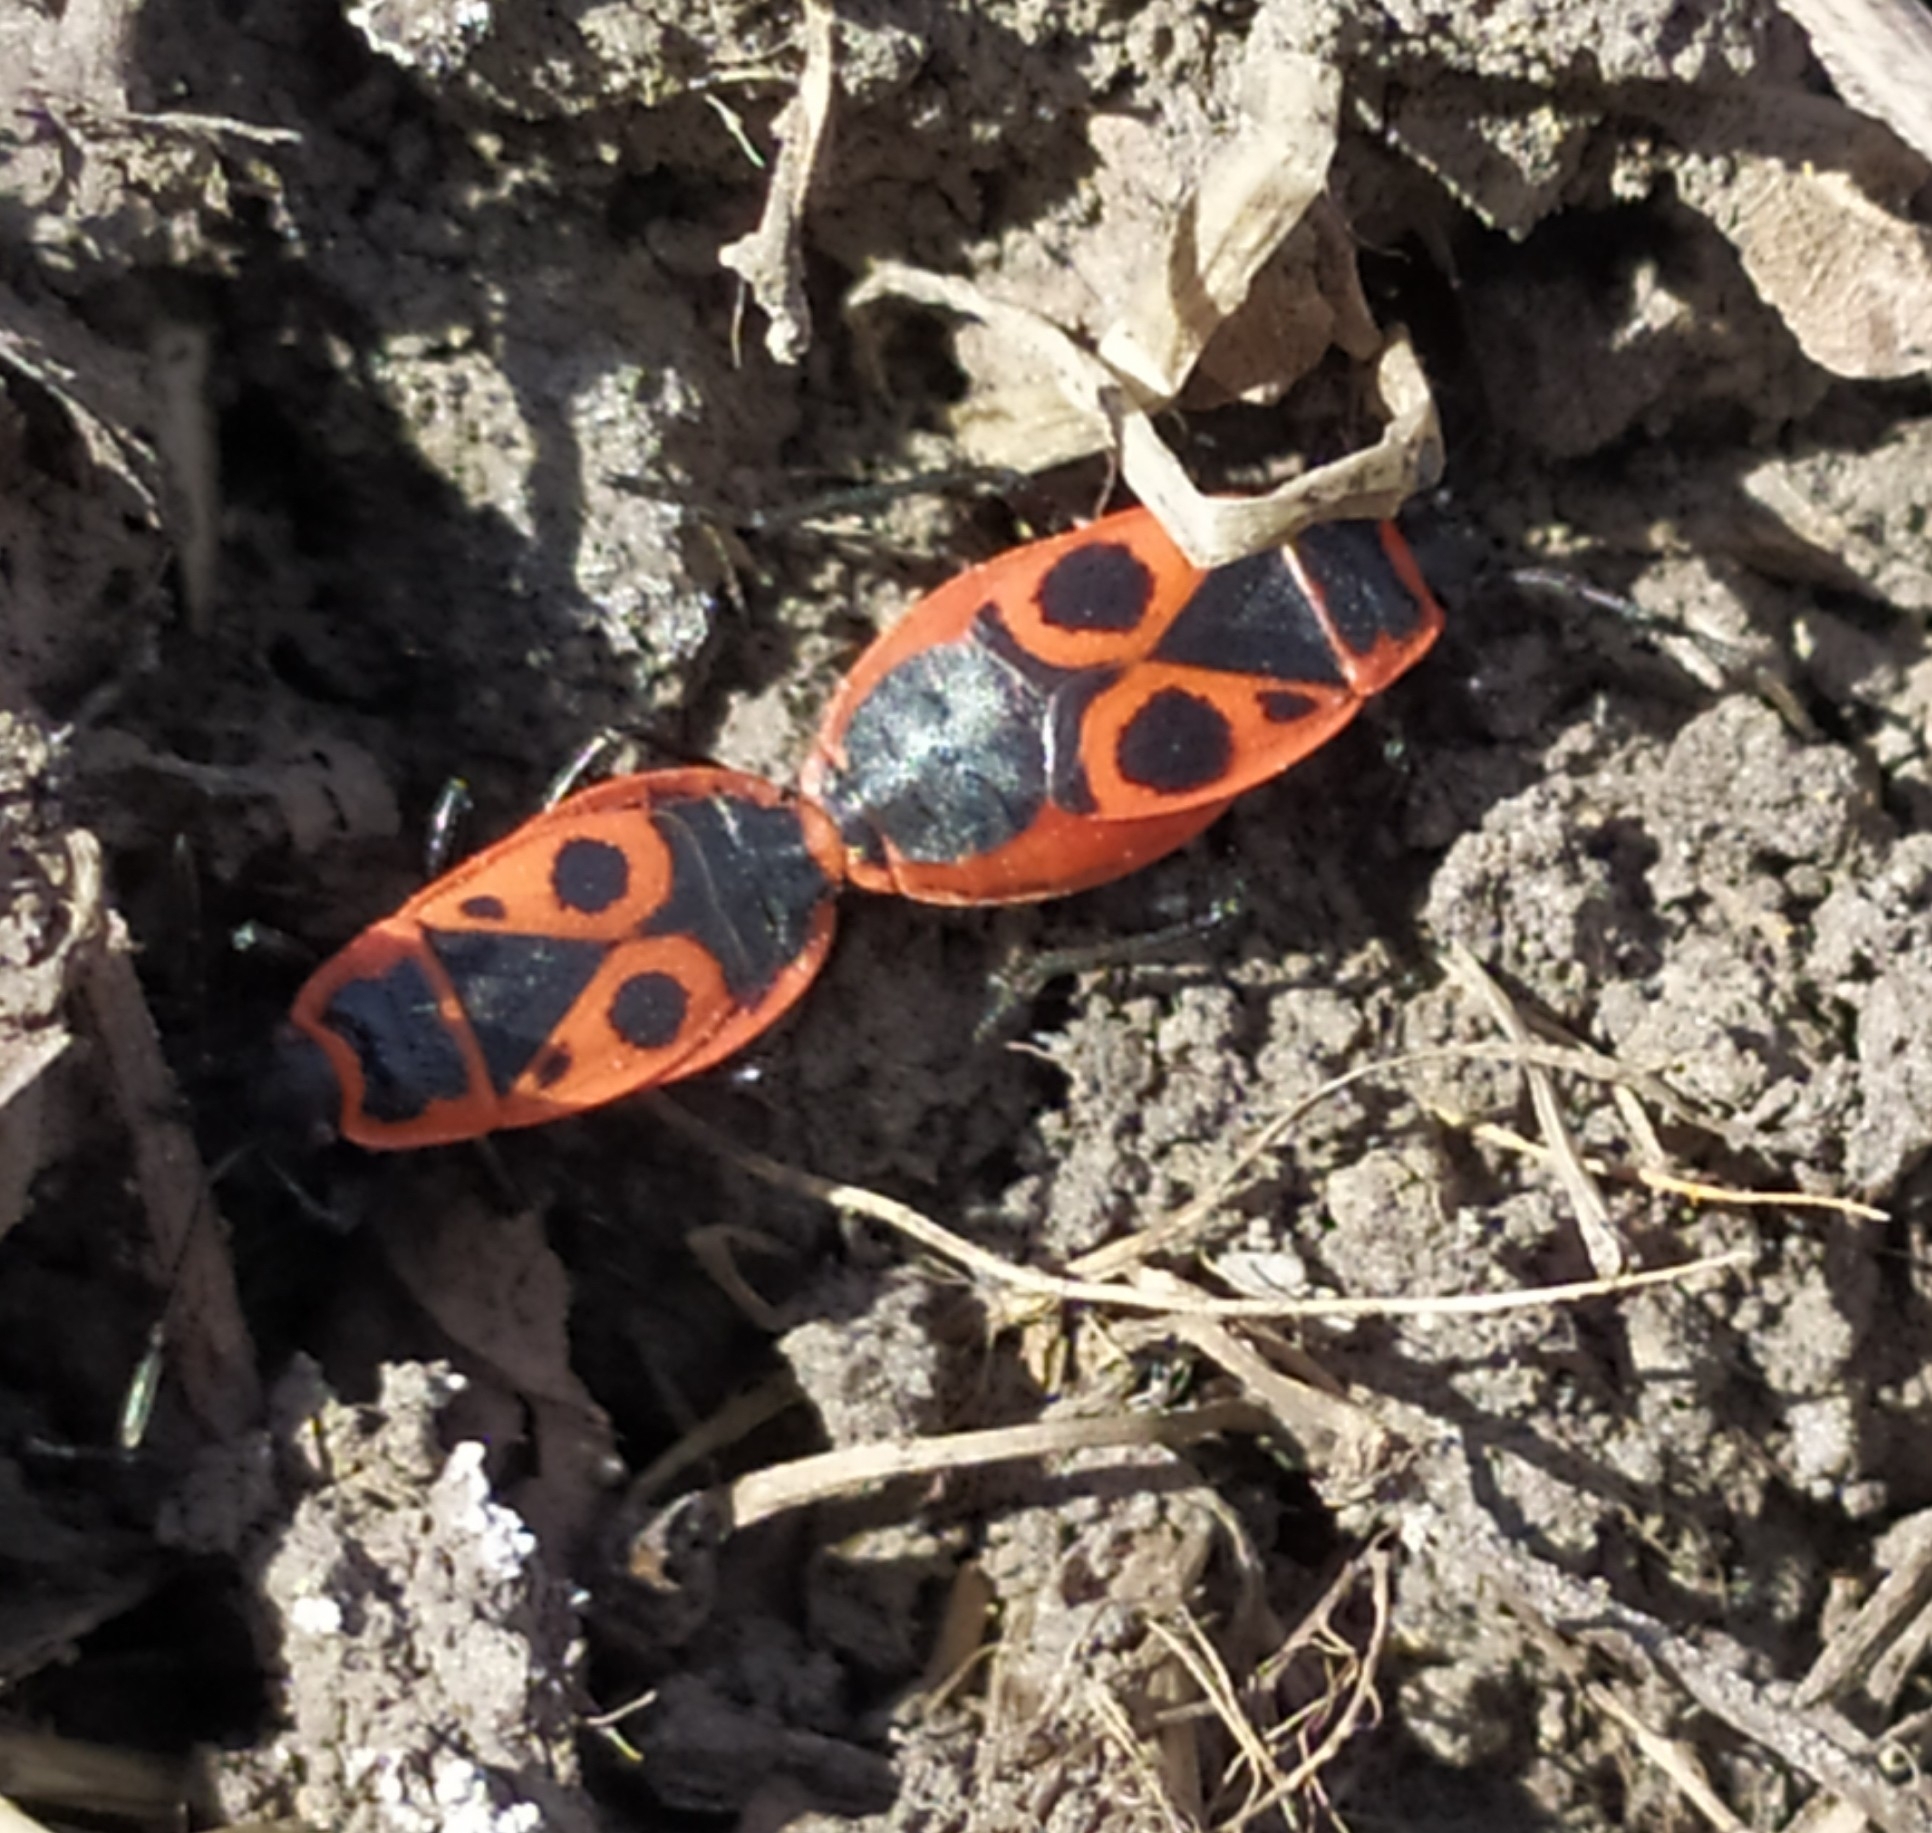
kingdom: Animalia
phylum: Arthropoda
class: Insecta
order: Hemiptera
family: Pyrrhocoridae
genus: Pyrrhocoris
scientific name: Pyrrhocoris apterus
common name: Firebug
